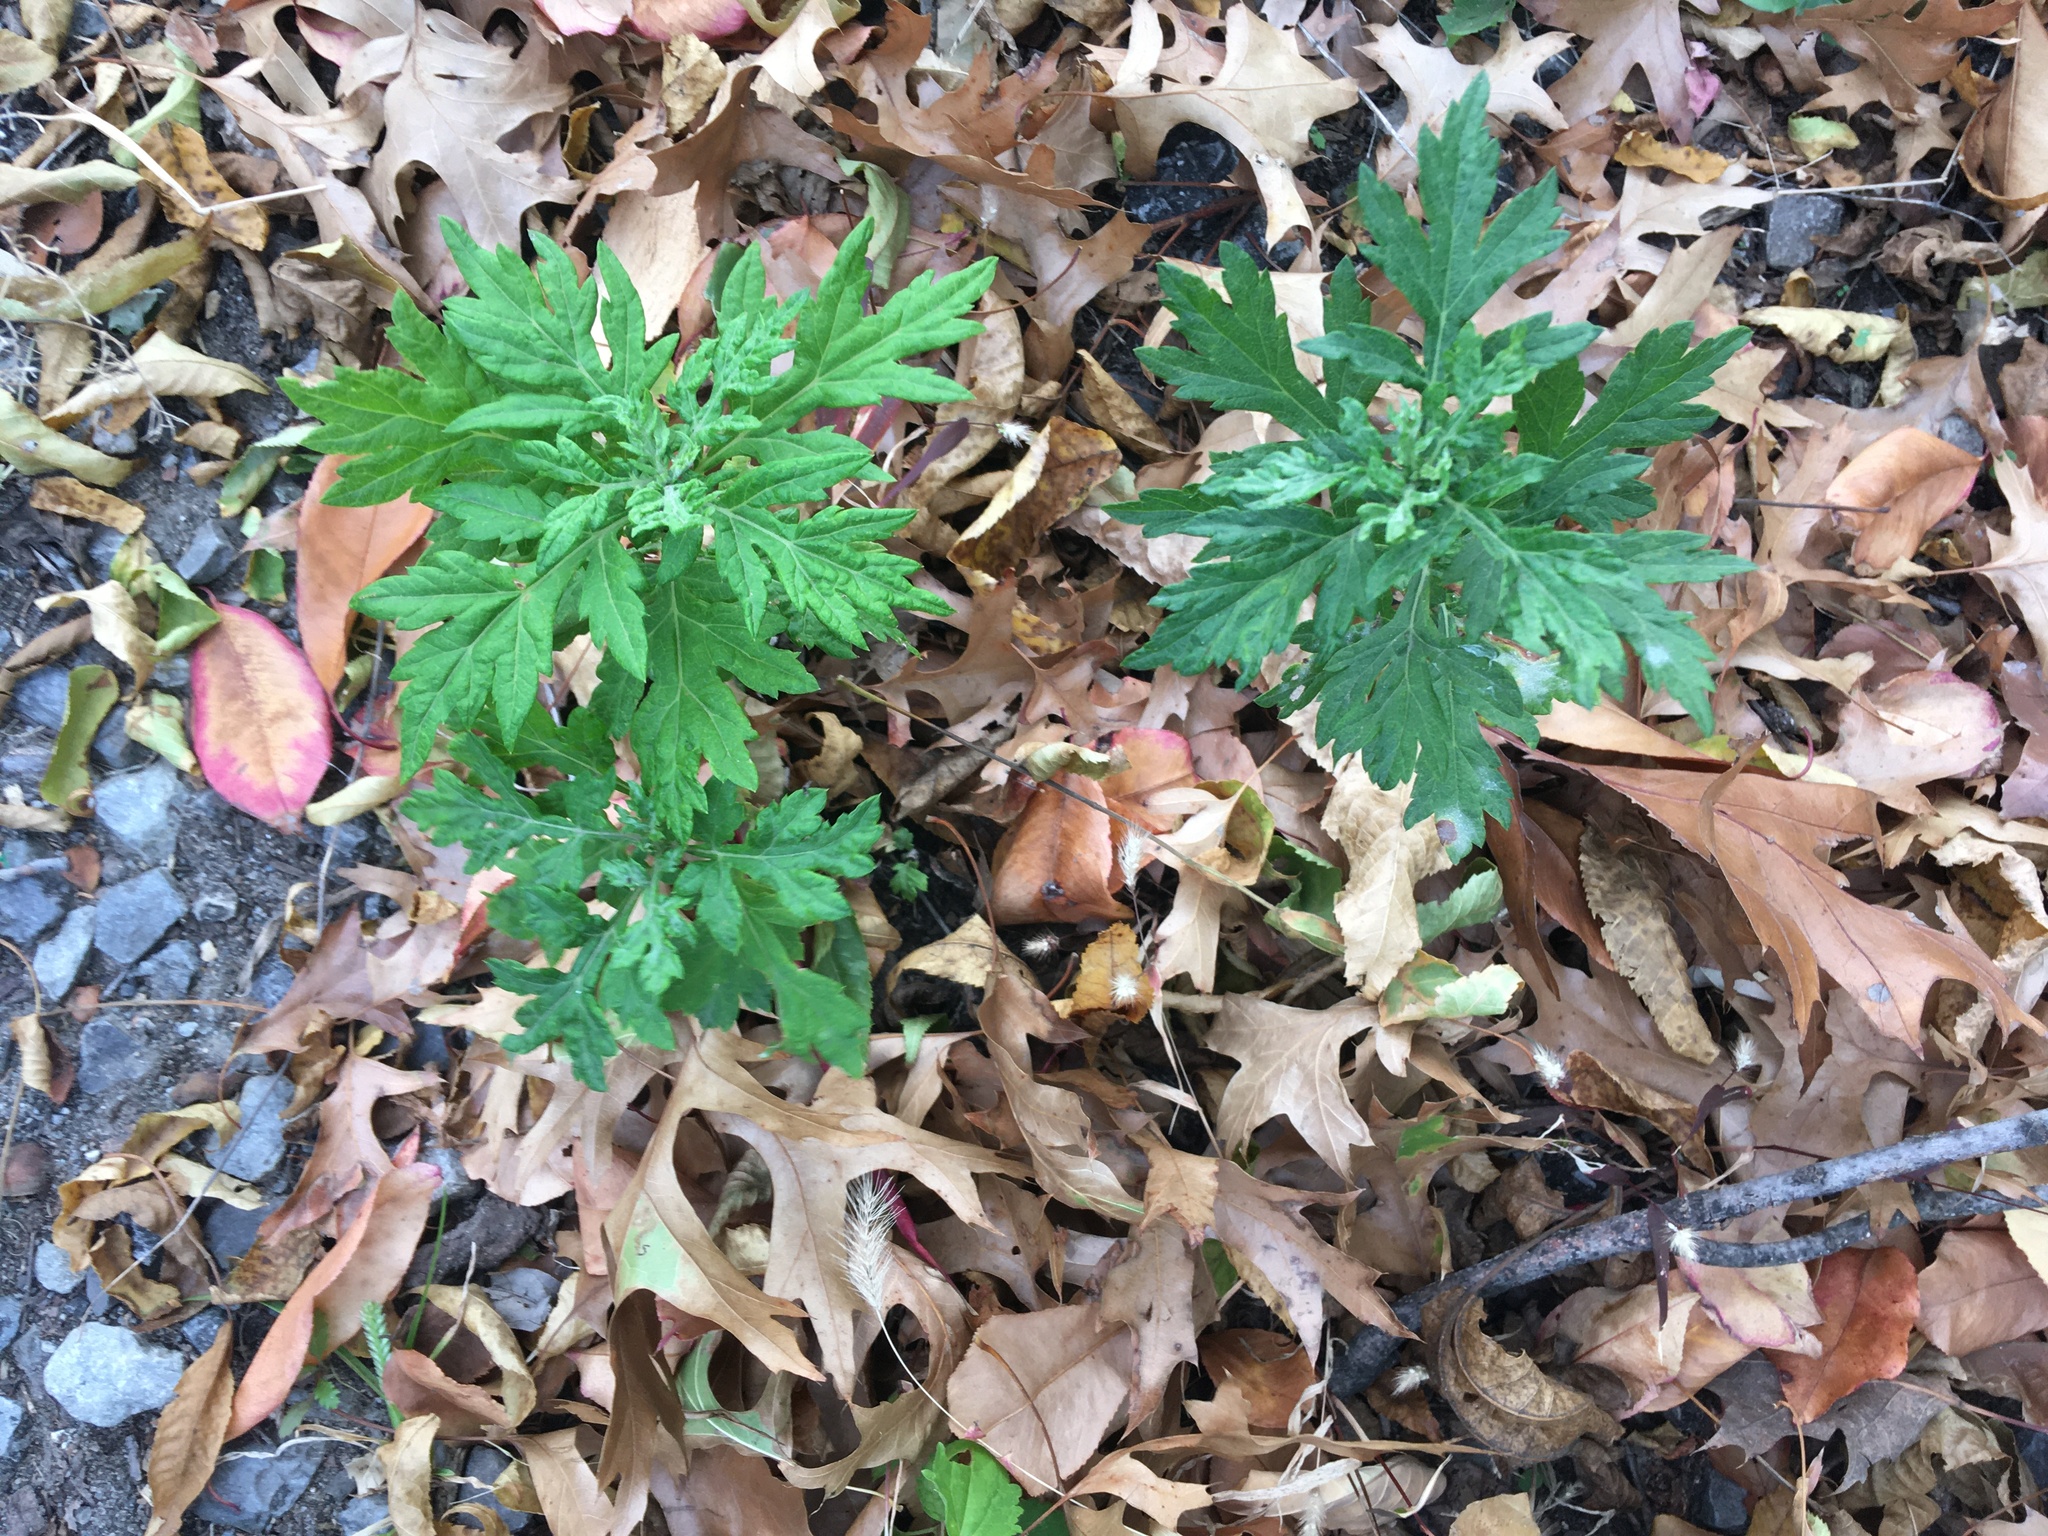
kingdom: Plantae
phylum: Tracheophyta
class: Magnoliopsida
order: Asterales
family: Asteraceae
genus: Artemisia
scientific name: Artemisia vulgaris
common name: Mugwort
